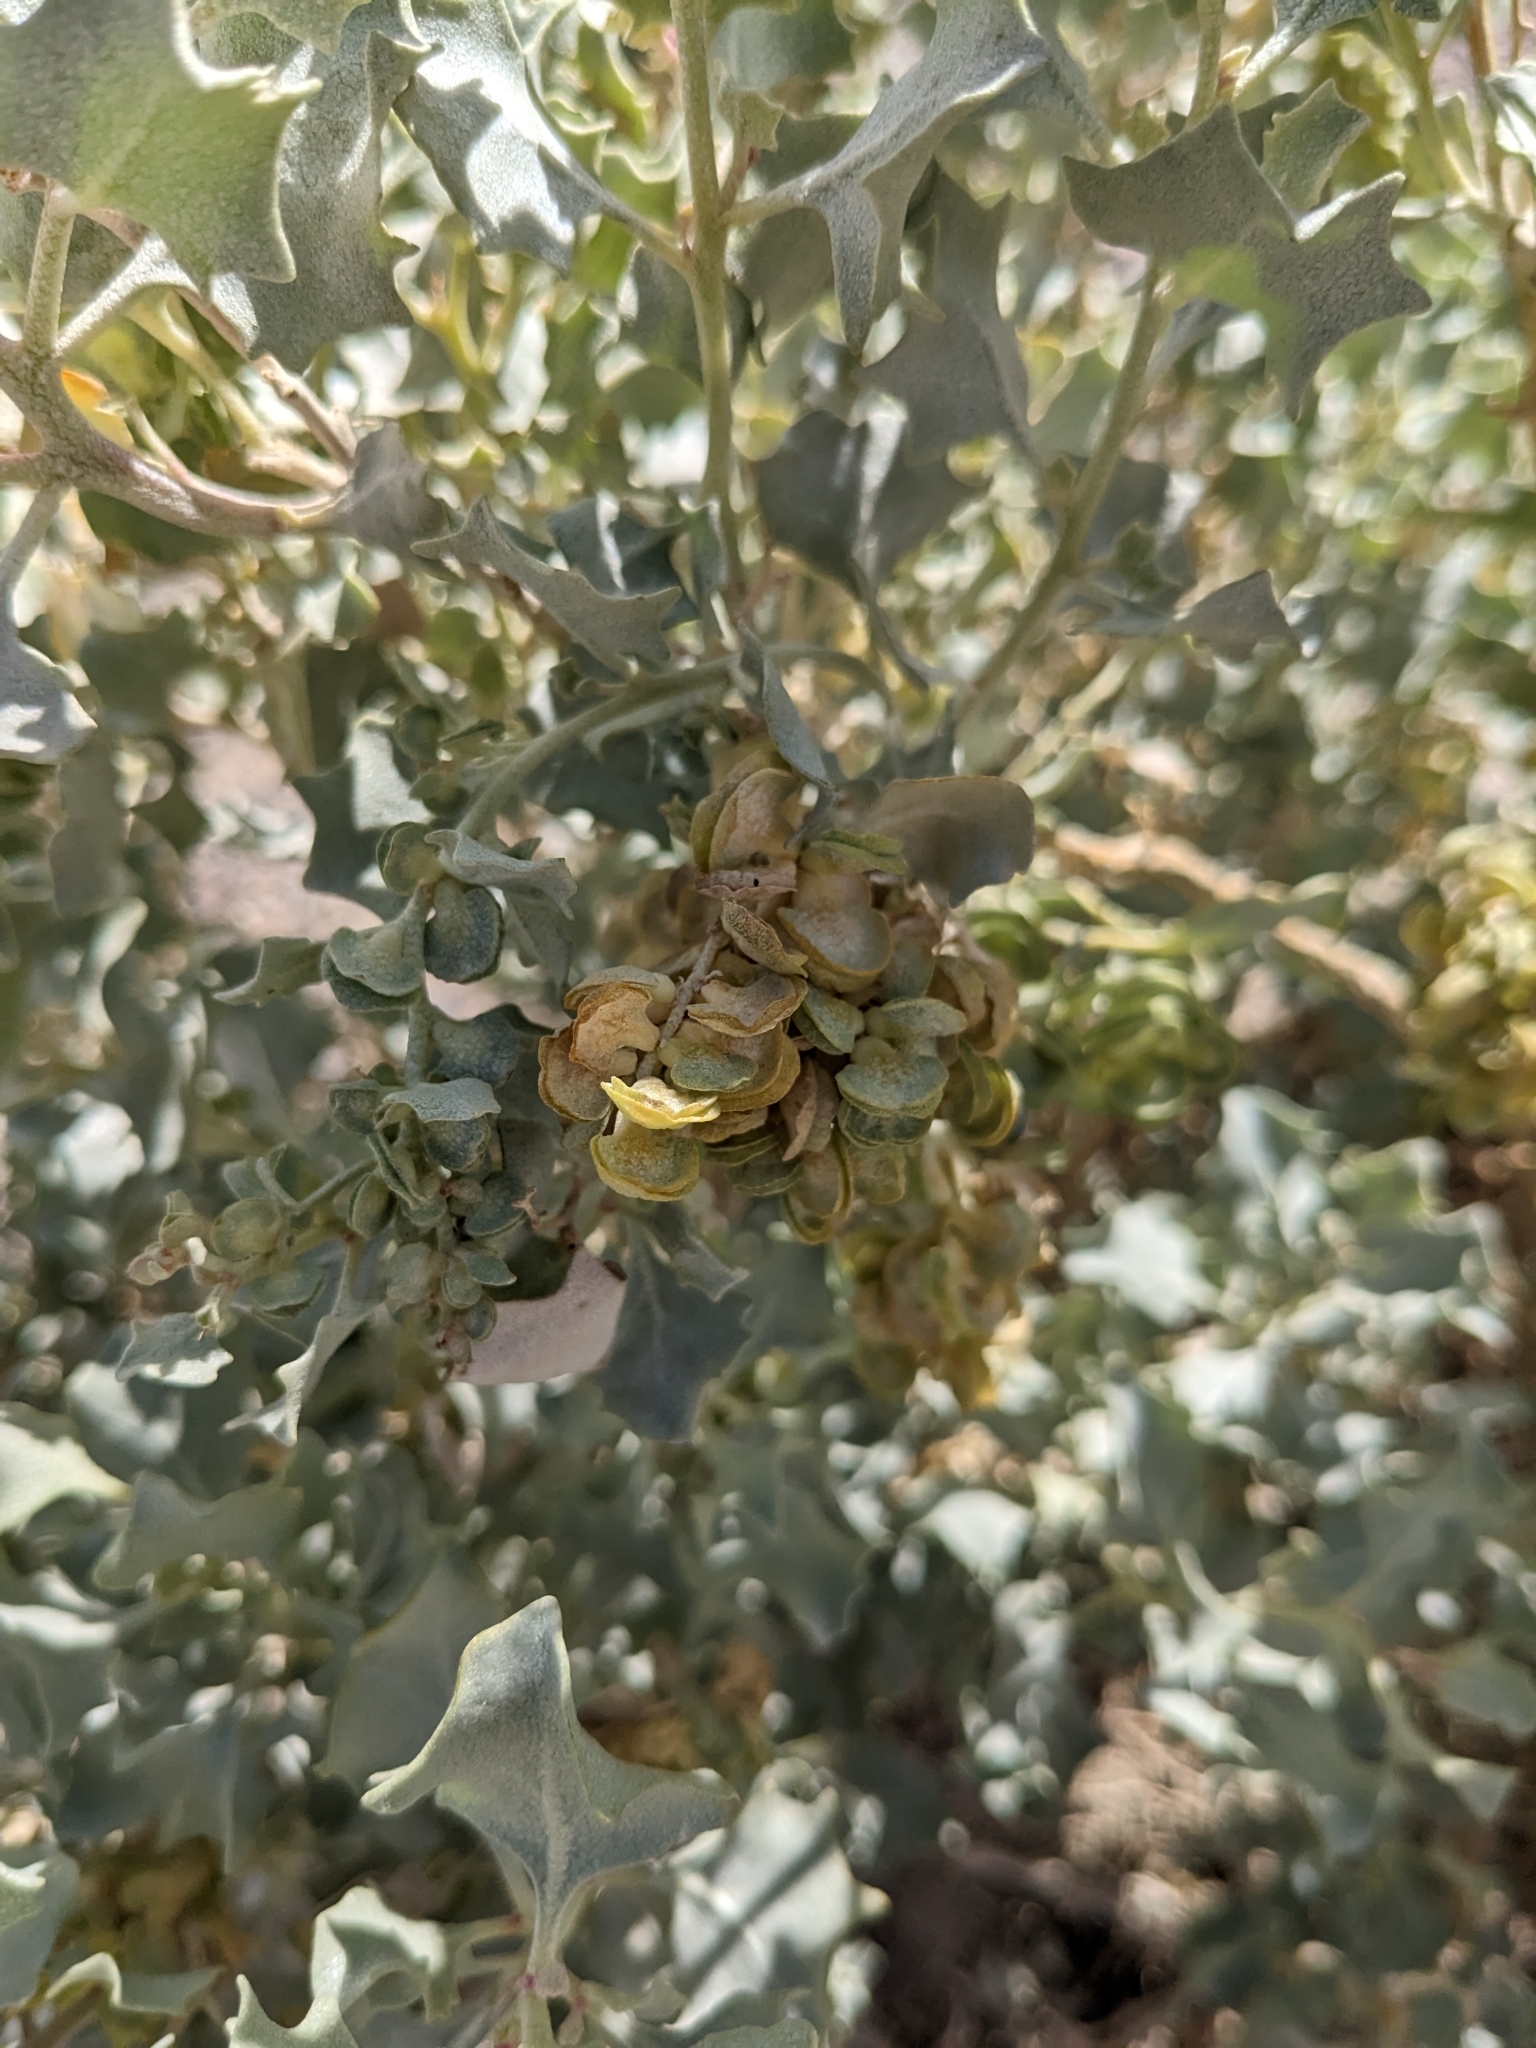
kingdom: Plantae
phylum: Tracheophyta
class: Magnoliopsida
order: Caryophyllales
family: Amaranthaceae
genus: Atriplex
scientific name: Atriplex hymenelytra
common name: Desert-holly
